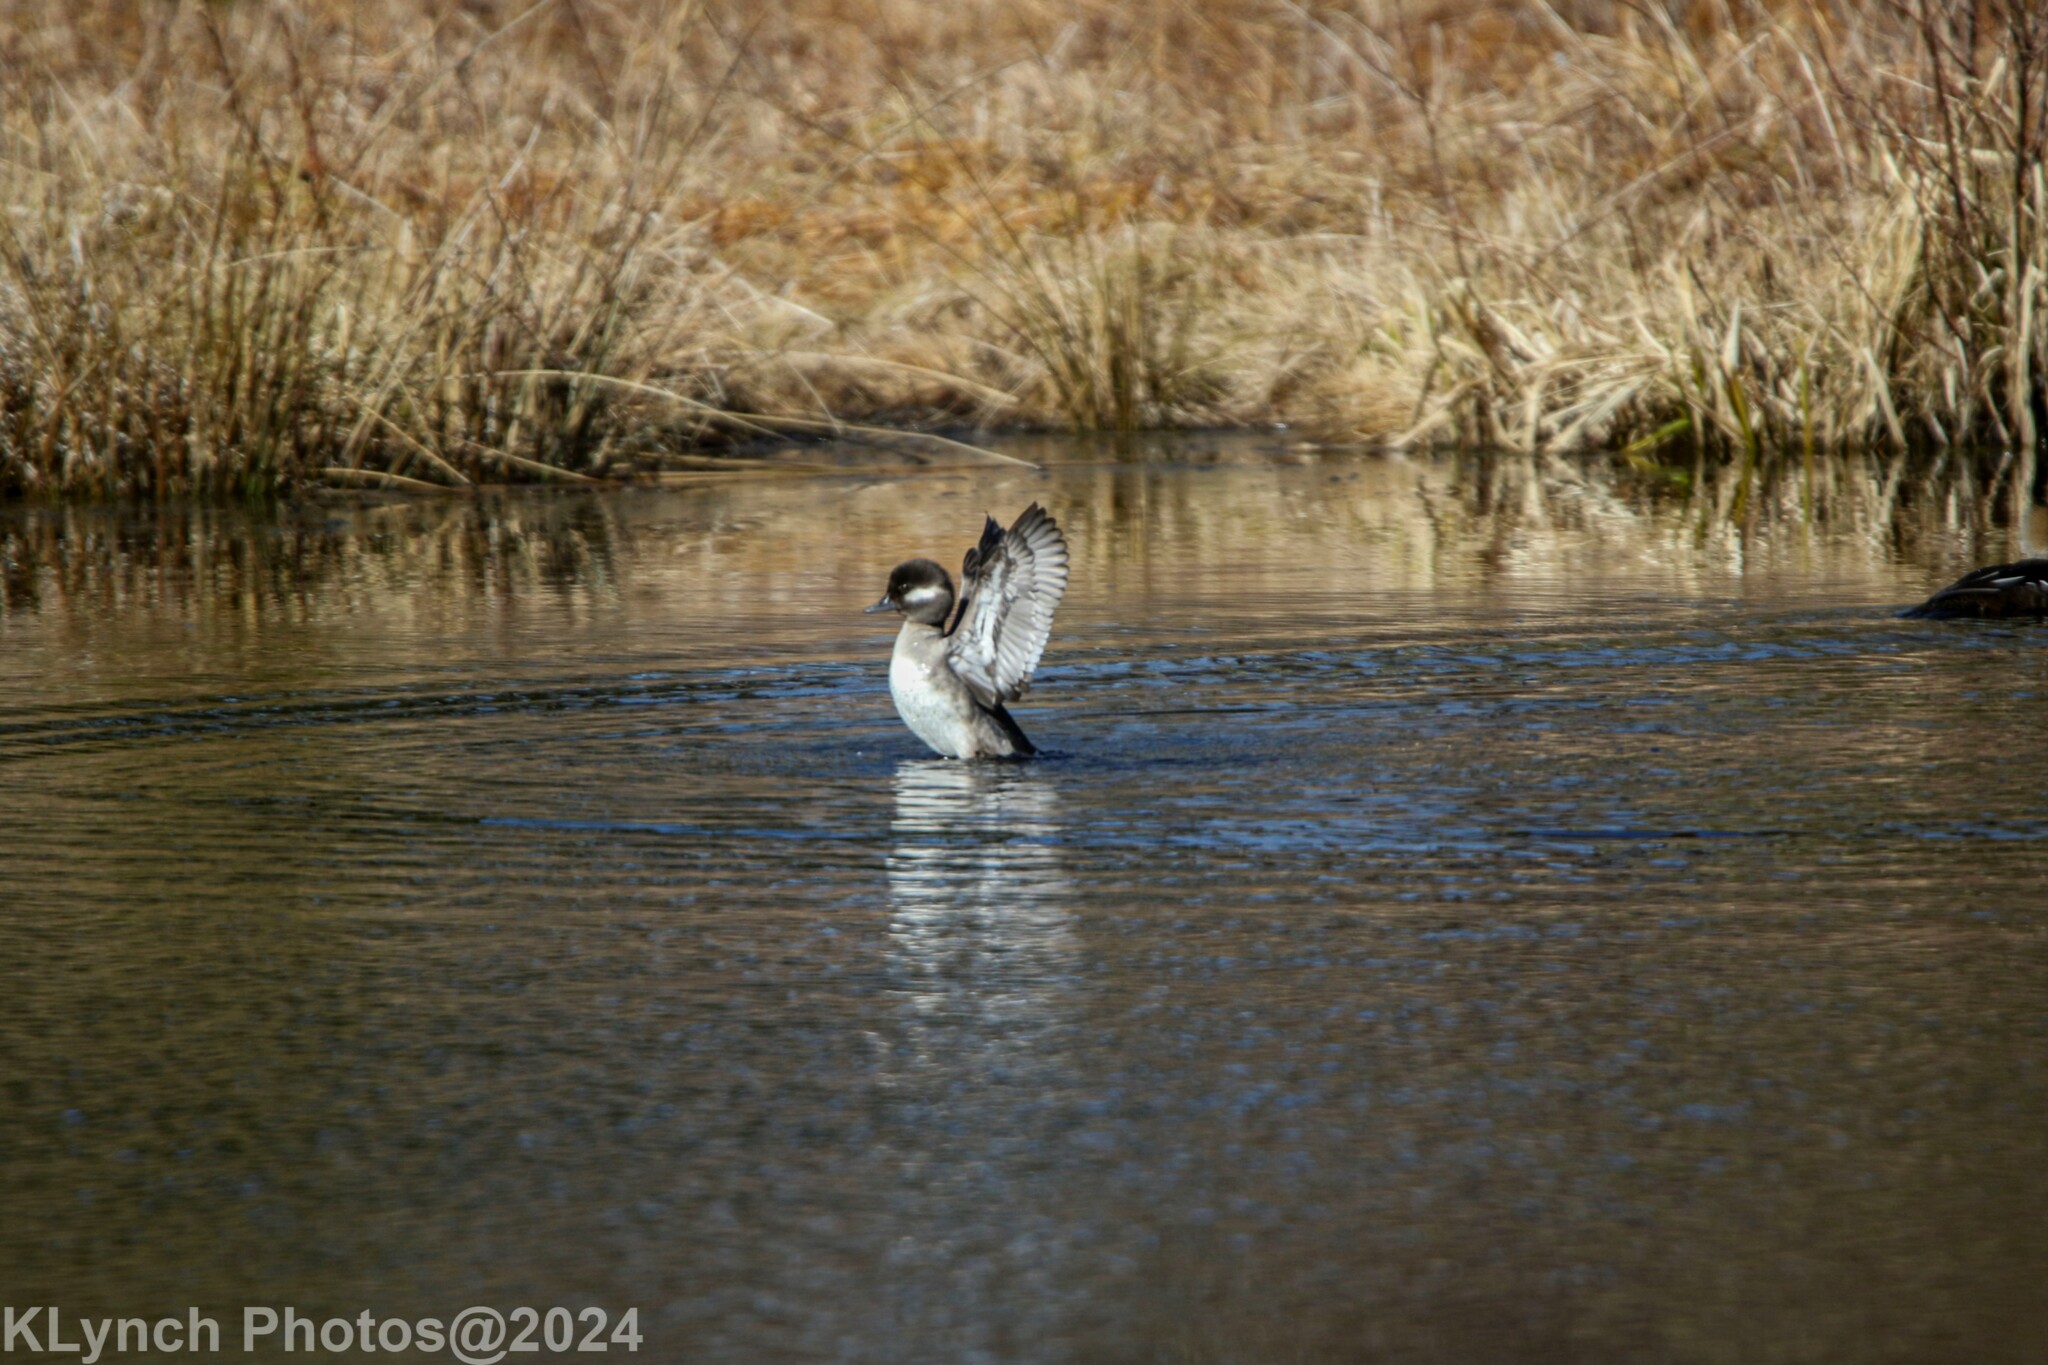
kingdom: Animalia
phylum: Chordata
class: Aves
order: Anseriformes
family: Anatidae
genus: Bucephala
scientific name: Bucephala albeola
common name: Bufflehead
